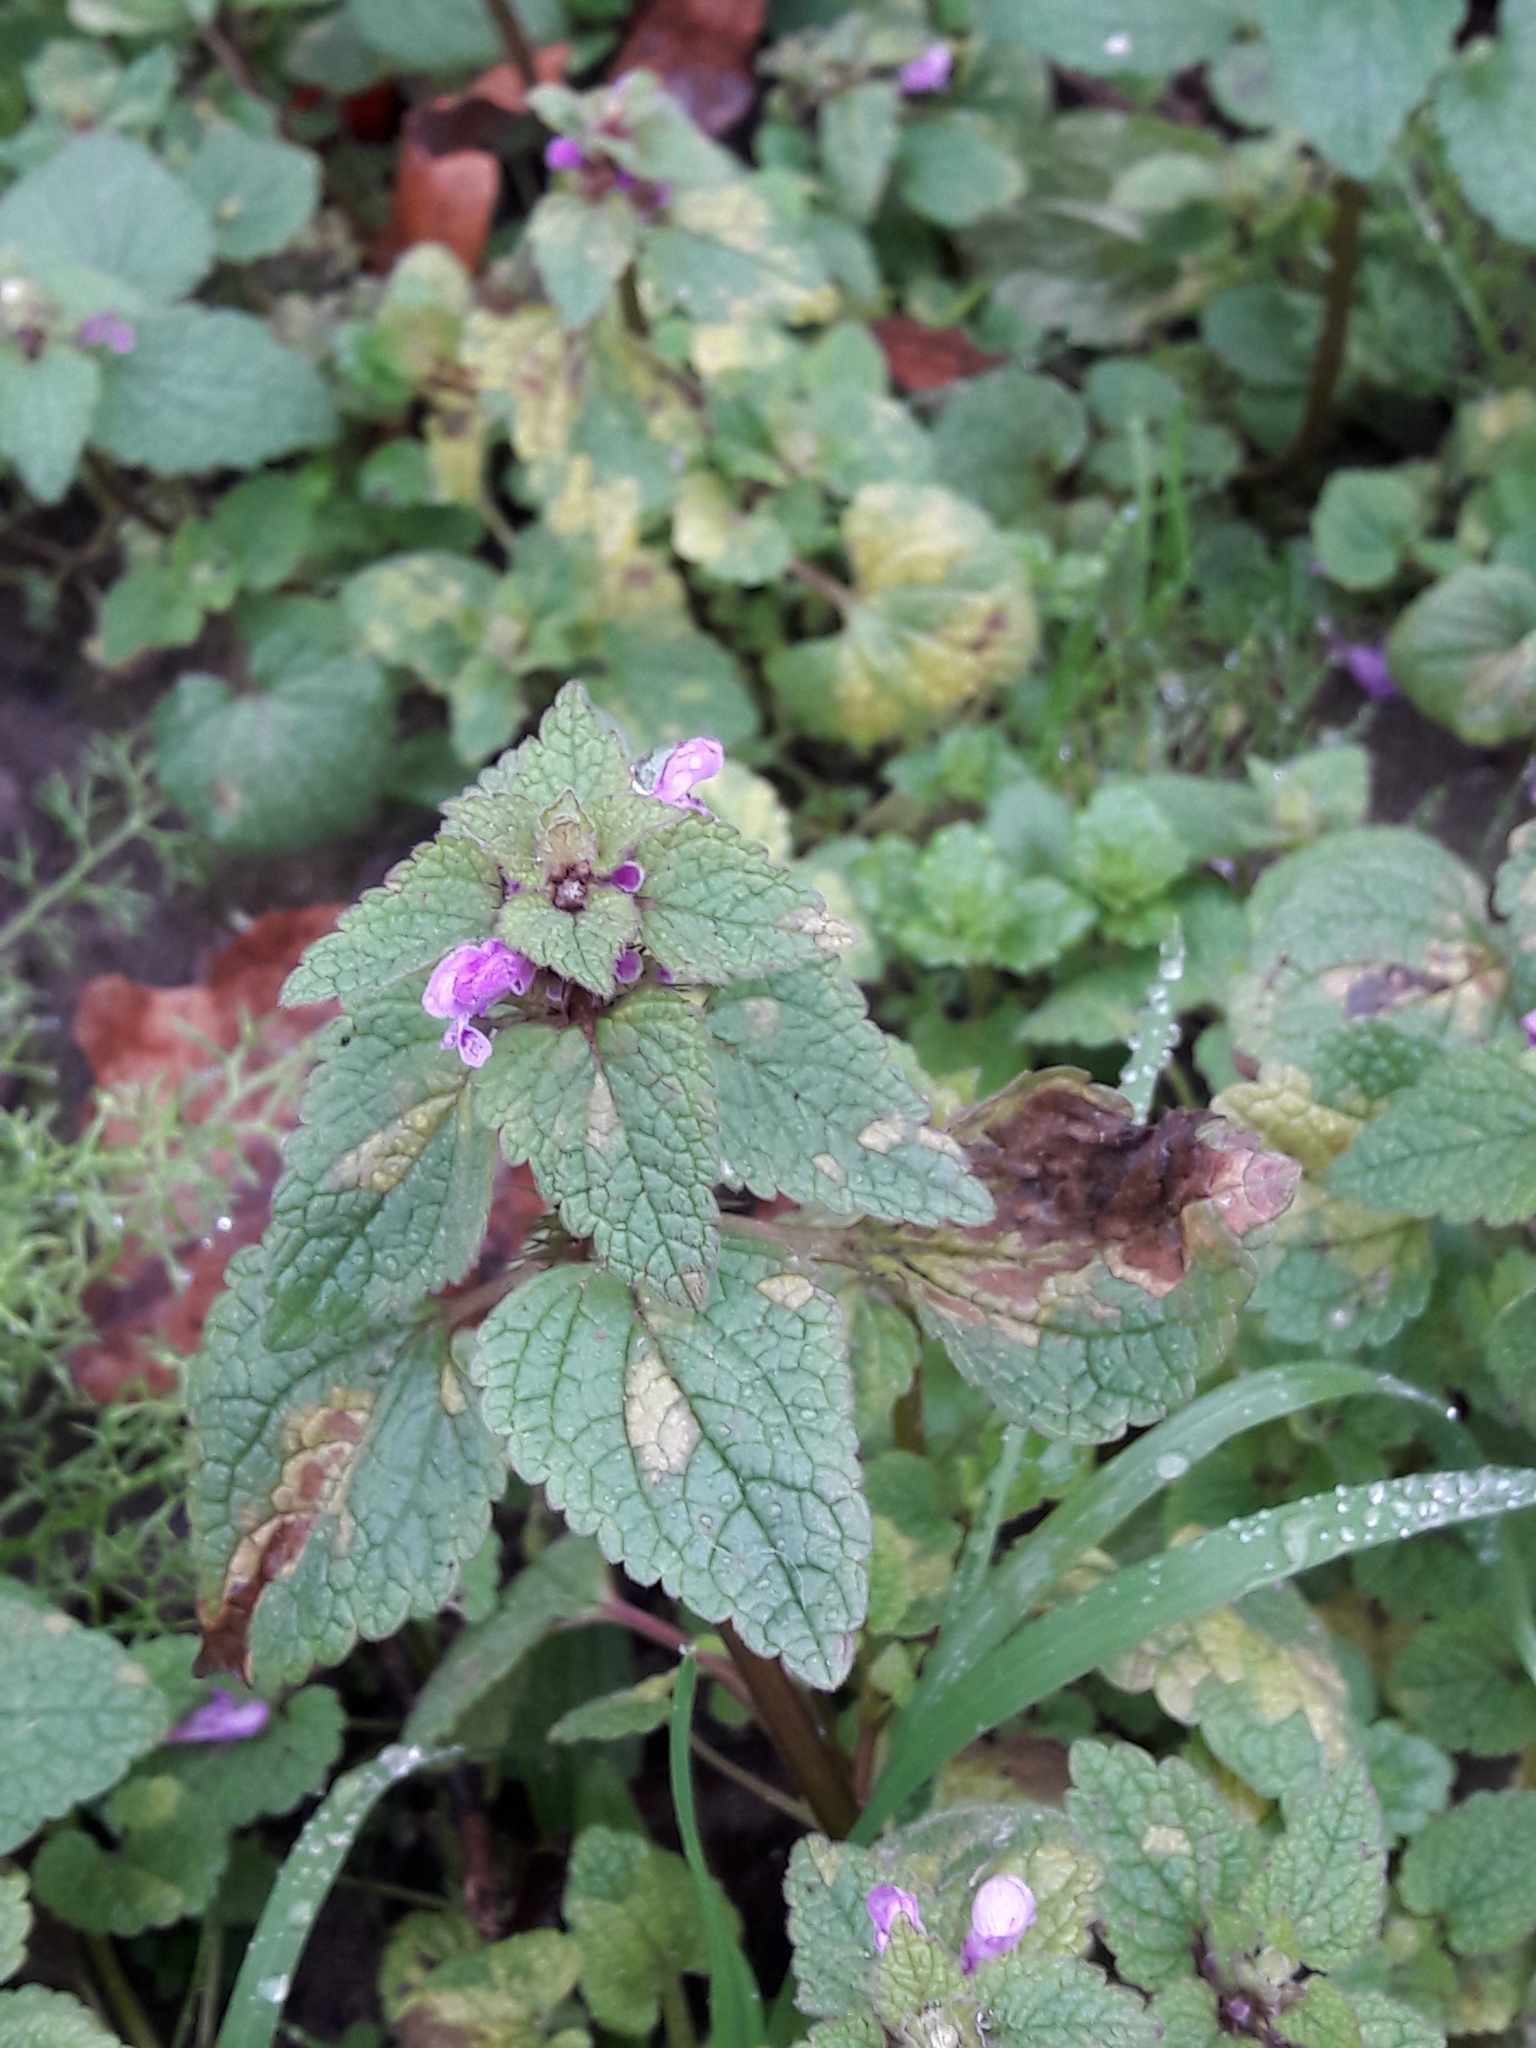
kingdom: Plantae
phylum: Tracheophyta
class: Magnoliopsida
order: Lamiales
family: Lamiaceae
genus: Lamium
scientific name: Lamium purpureum
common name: Red dead-nettle
